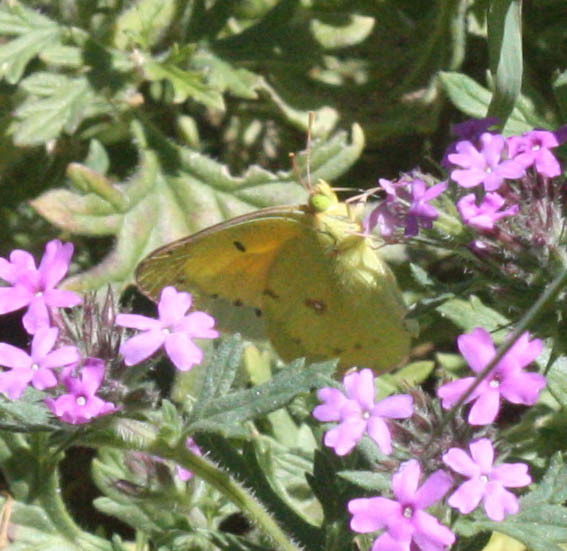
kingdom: Animalia
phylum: Arthropoda
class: Insecta
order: Lepidoptera
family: Pieridae
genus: Colias
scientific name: Colias eurytheme
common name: Alfalfa butterfly
